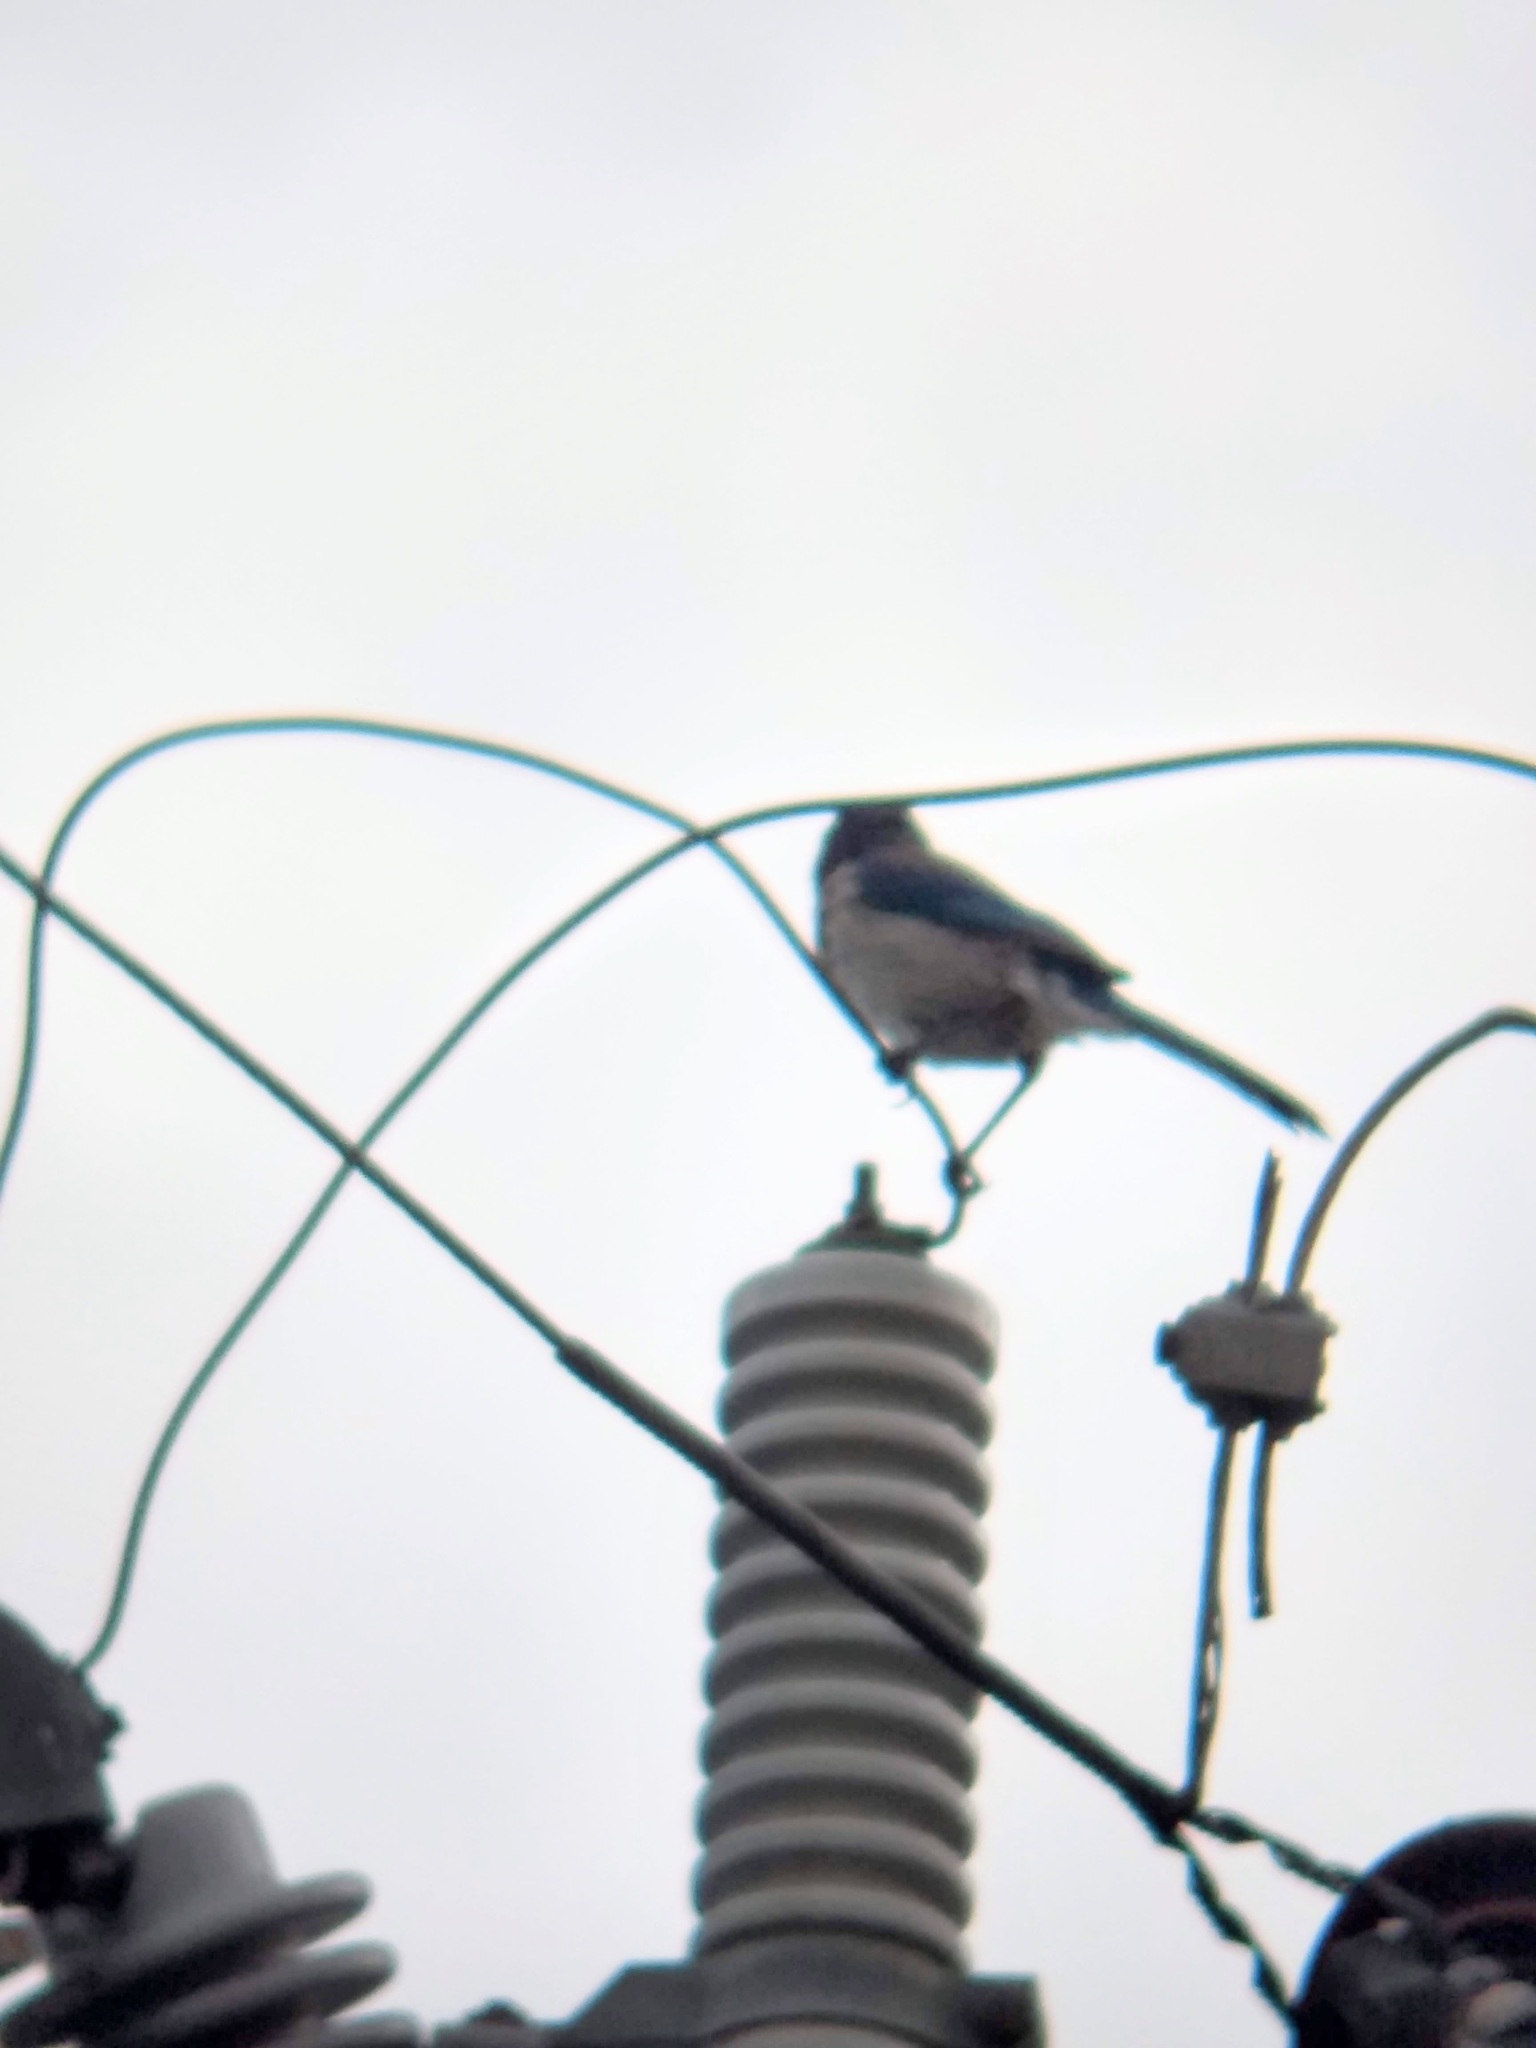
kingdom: Animalia
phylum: Chordata
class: Aves
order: Passeriformes
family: Corvidae
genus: Aphelocoma
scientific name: Aphelocoma californica
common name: California scrub-jay
